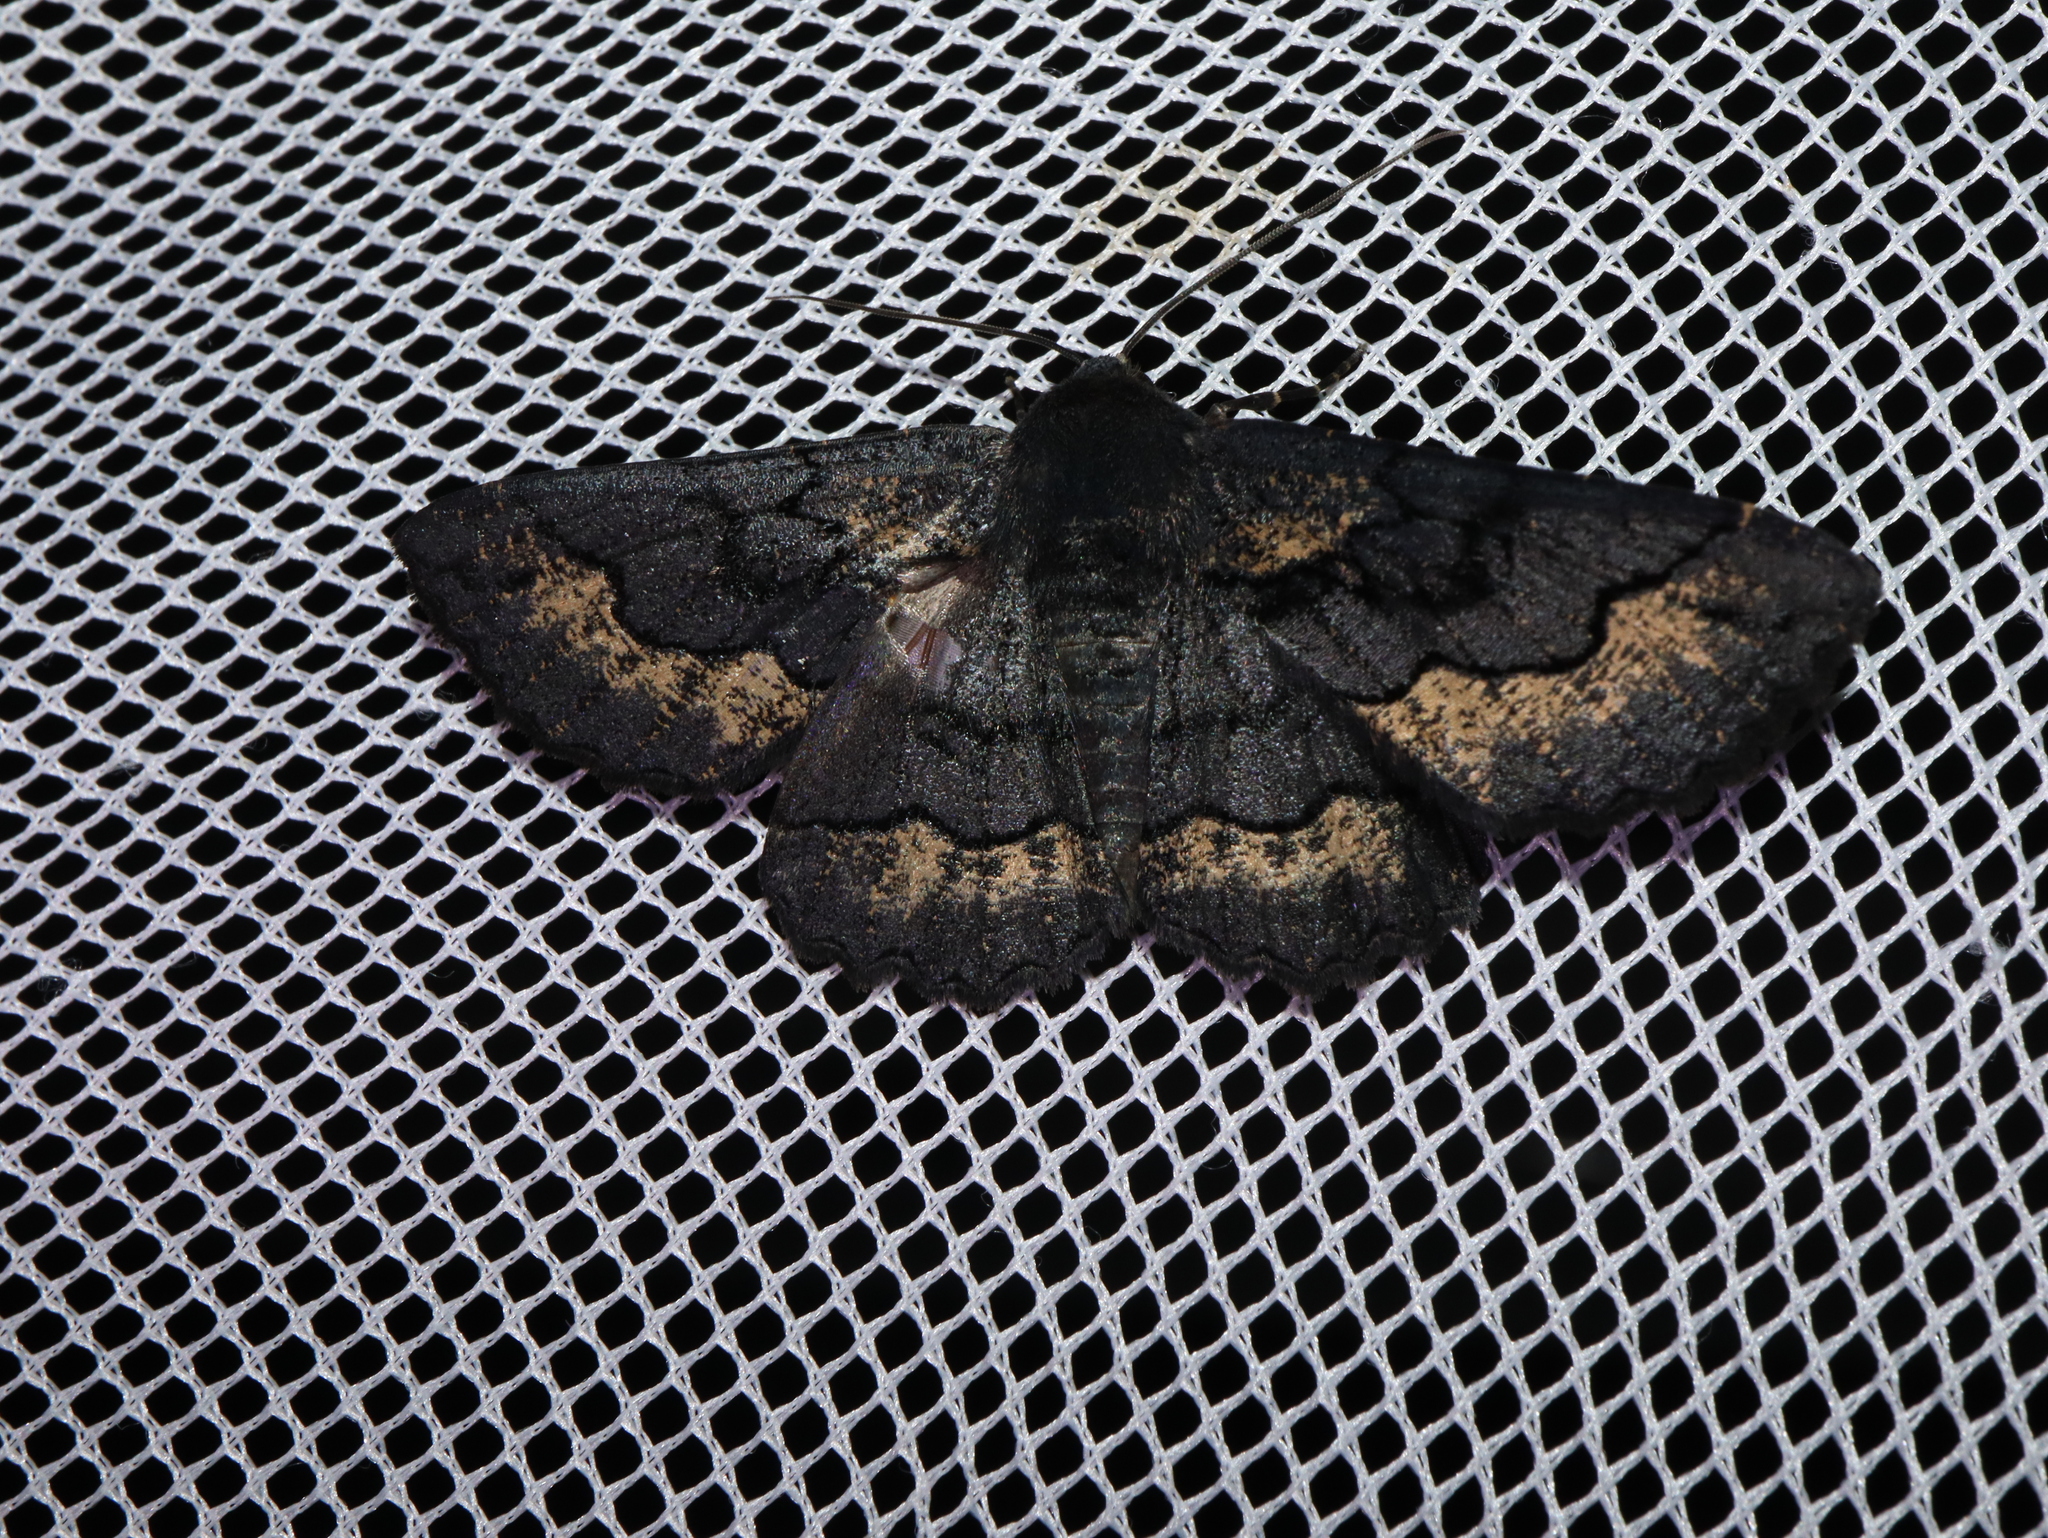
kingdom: Animalia
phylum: Arthropoda
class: Insecta
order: Lepidoptera
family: Geometridae
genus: Melanodes
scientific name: Melanodes anthracitaria
